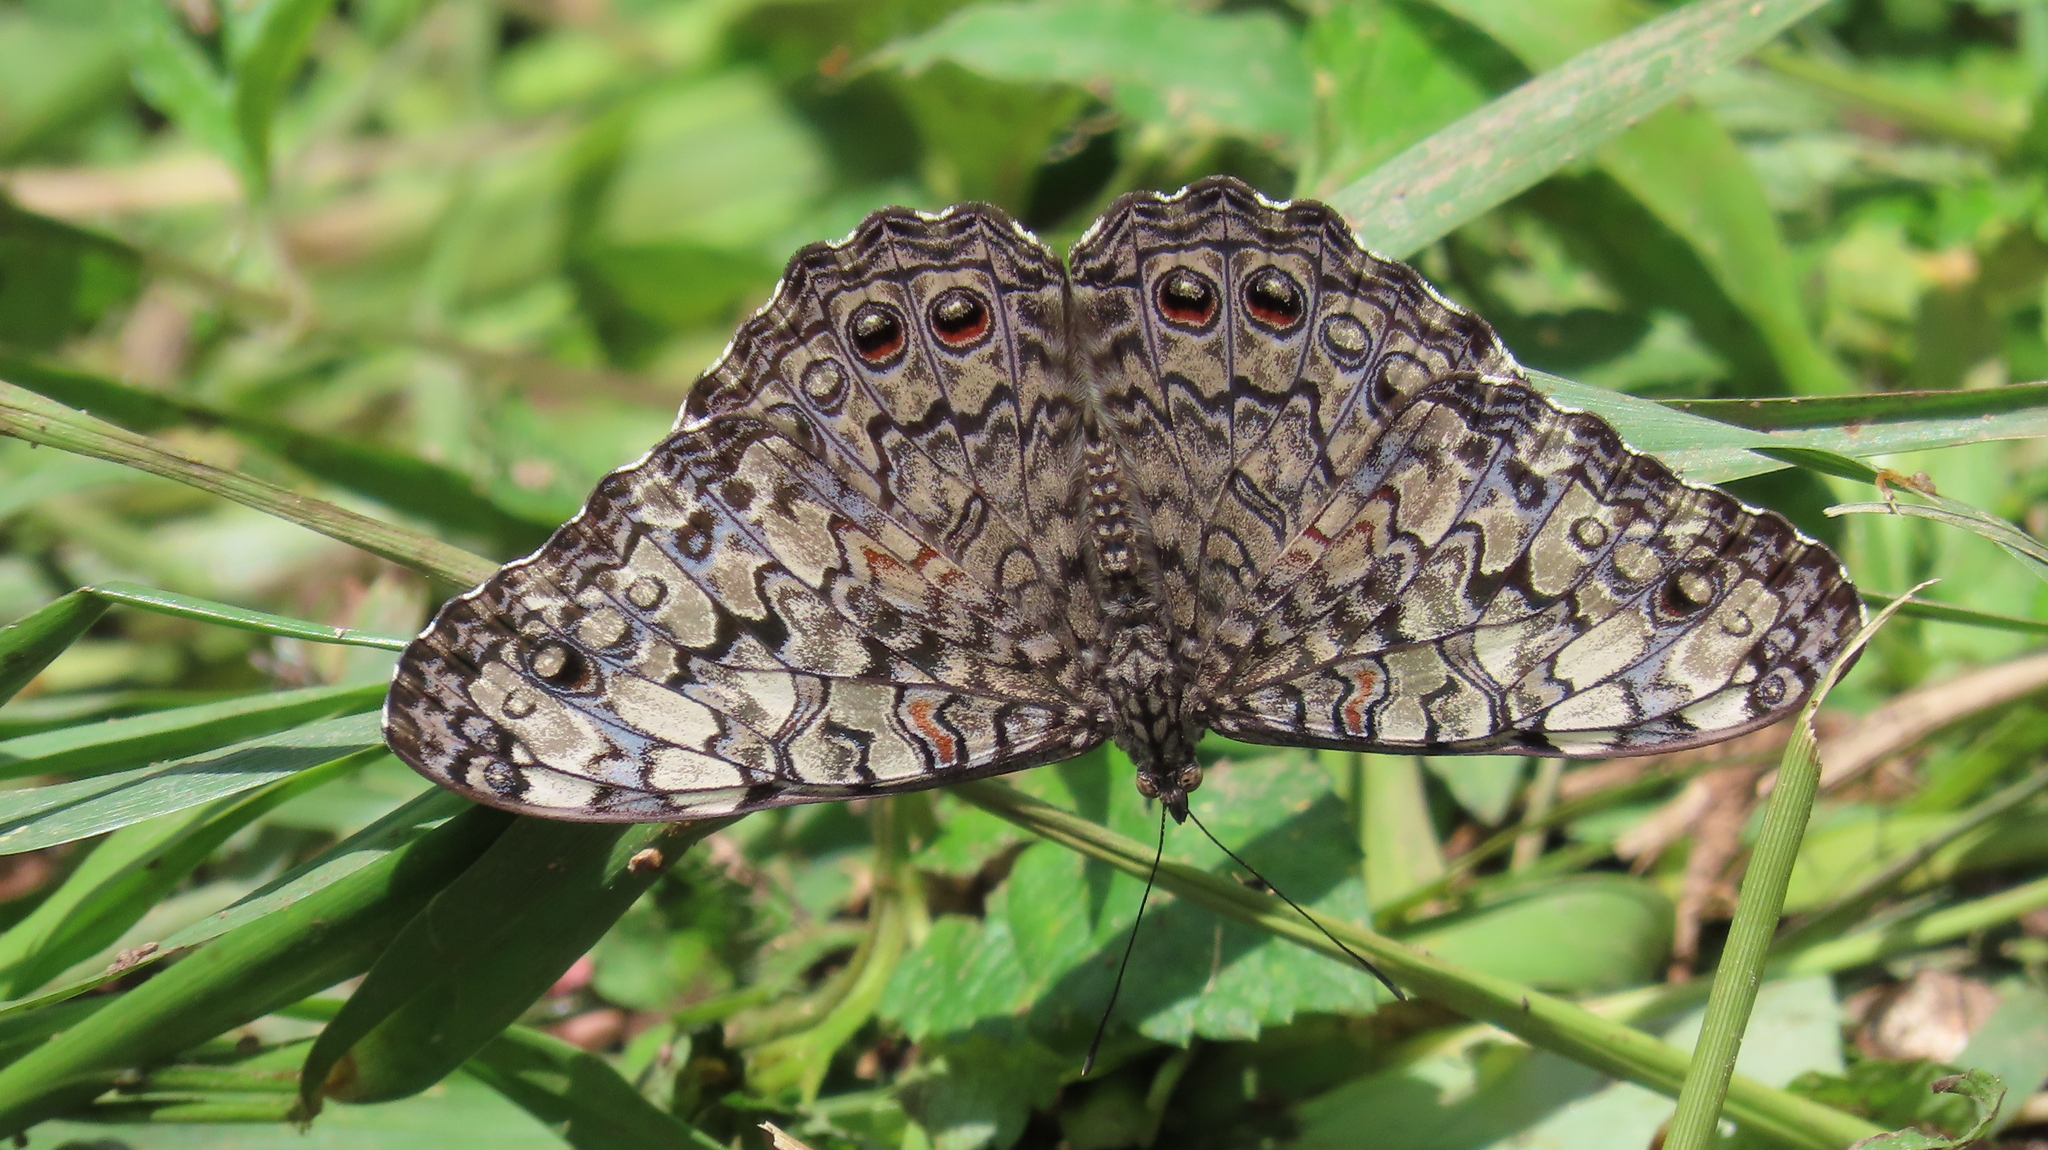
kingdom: Animalia
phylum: Arthropoda
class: Insecta
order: Lepidoptera
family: Nymphalidae
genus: Hamadryas
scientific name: Hamadryas februa
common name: Gray cracker
